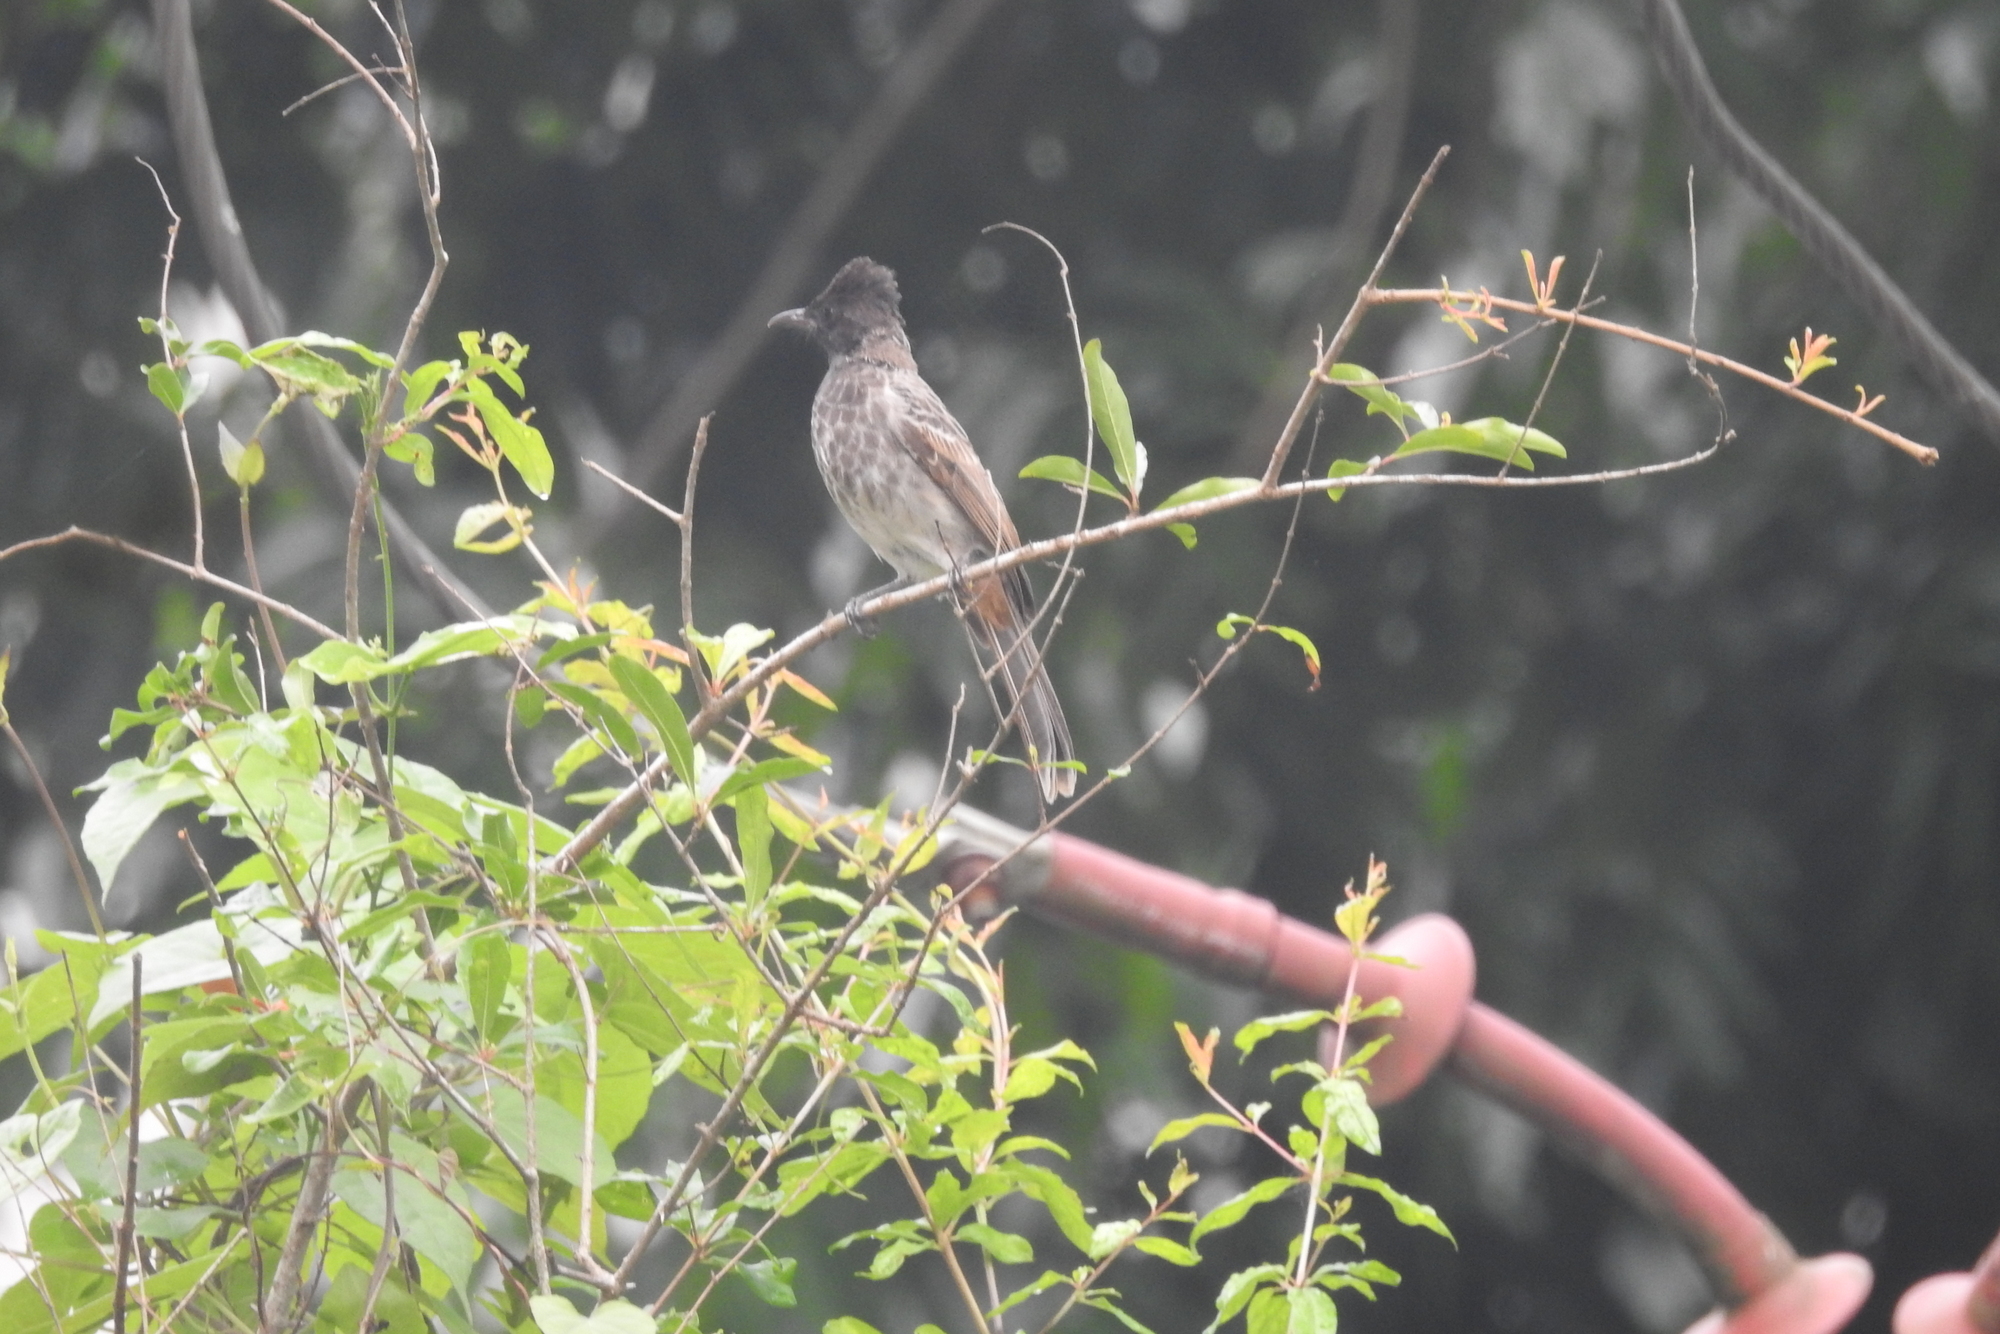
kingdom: Animalia
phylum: Chordata
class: Aves
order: Passeriformes
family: Pycnonotidae
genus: Pycnonotus
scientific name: Pycnonotus cafer
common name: Red-vented bulbul
